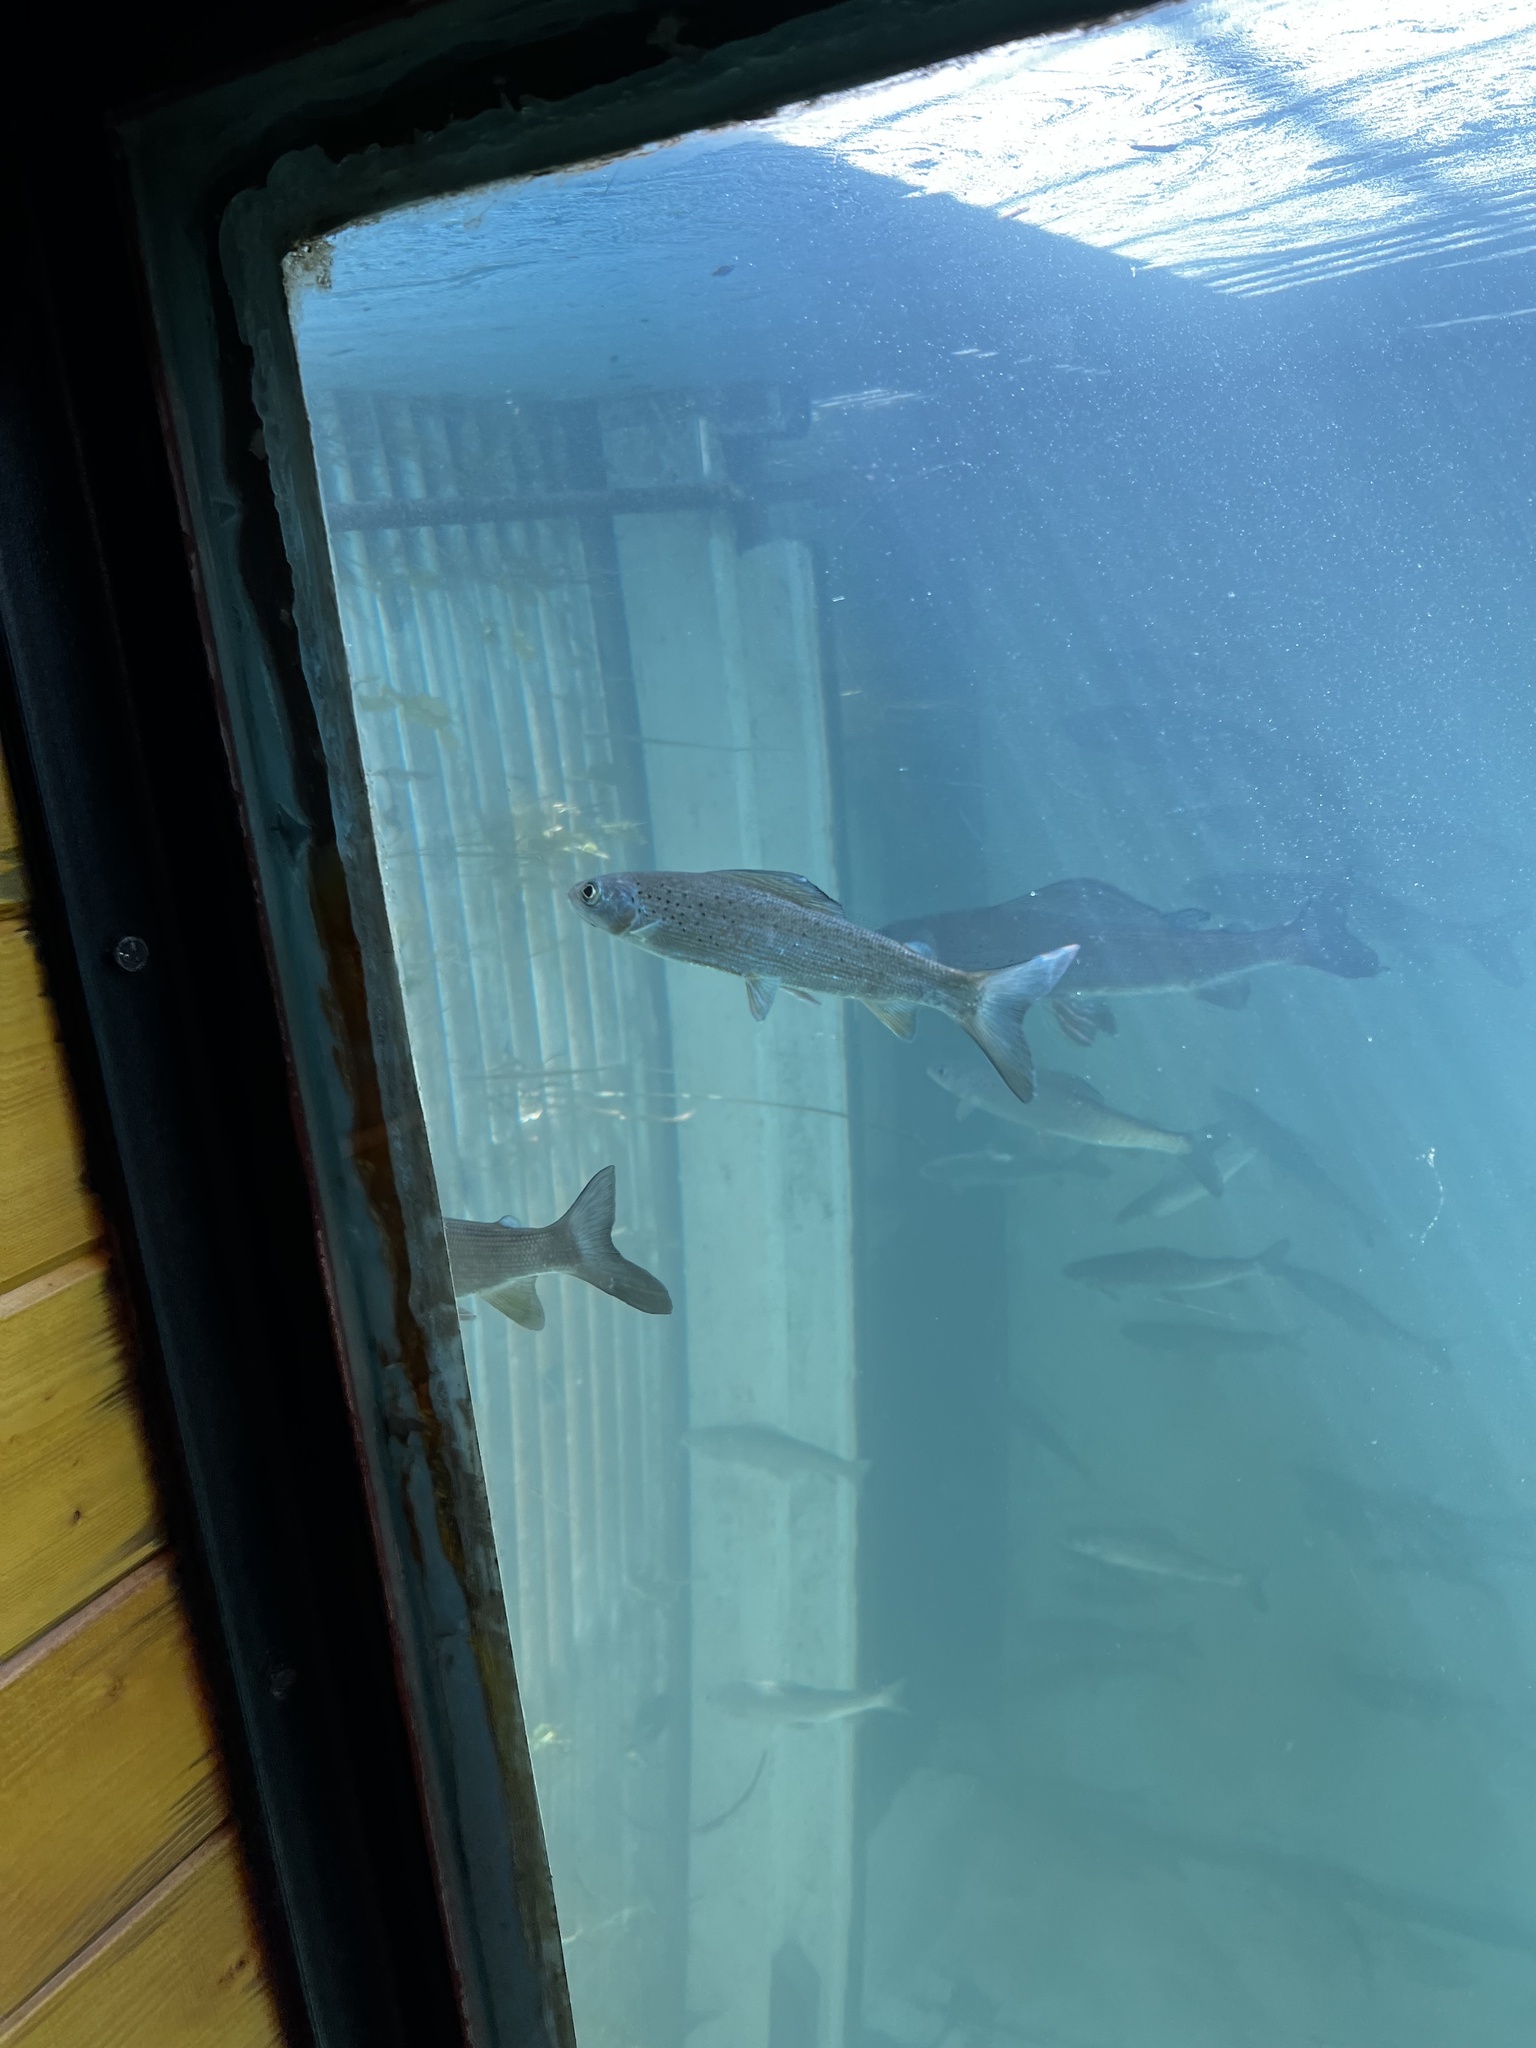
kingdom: Animalia
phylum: Chordata
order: Salmoniformes
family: Salmonidae
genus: Thymallus
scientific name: Thymallus arcticus
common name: Arctic grayling
